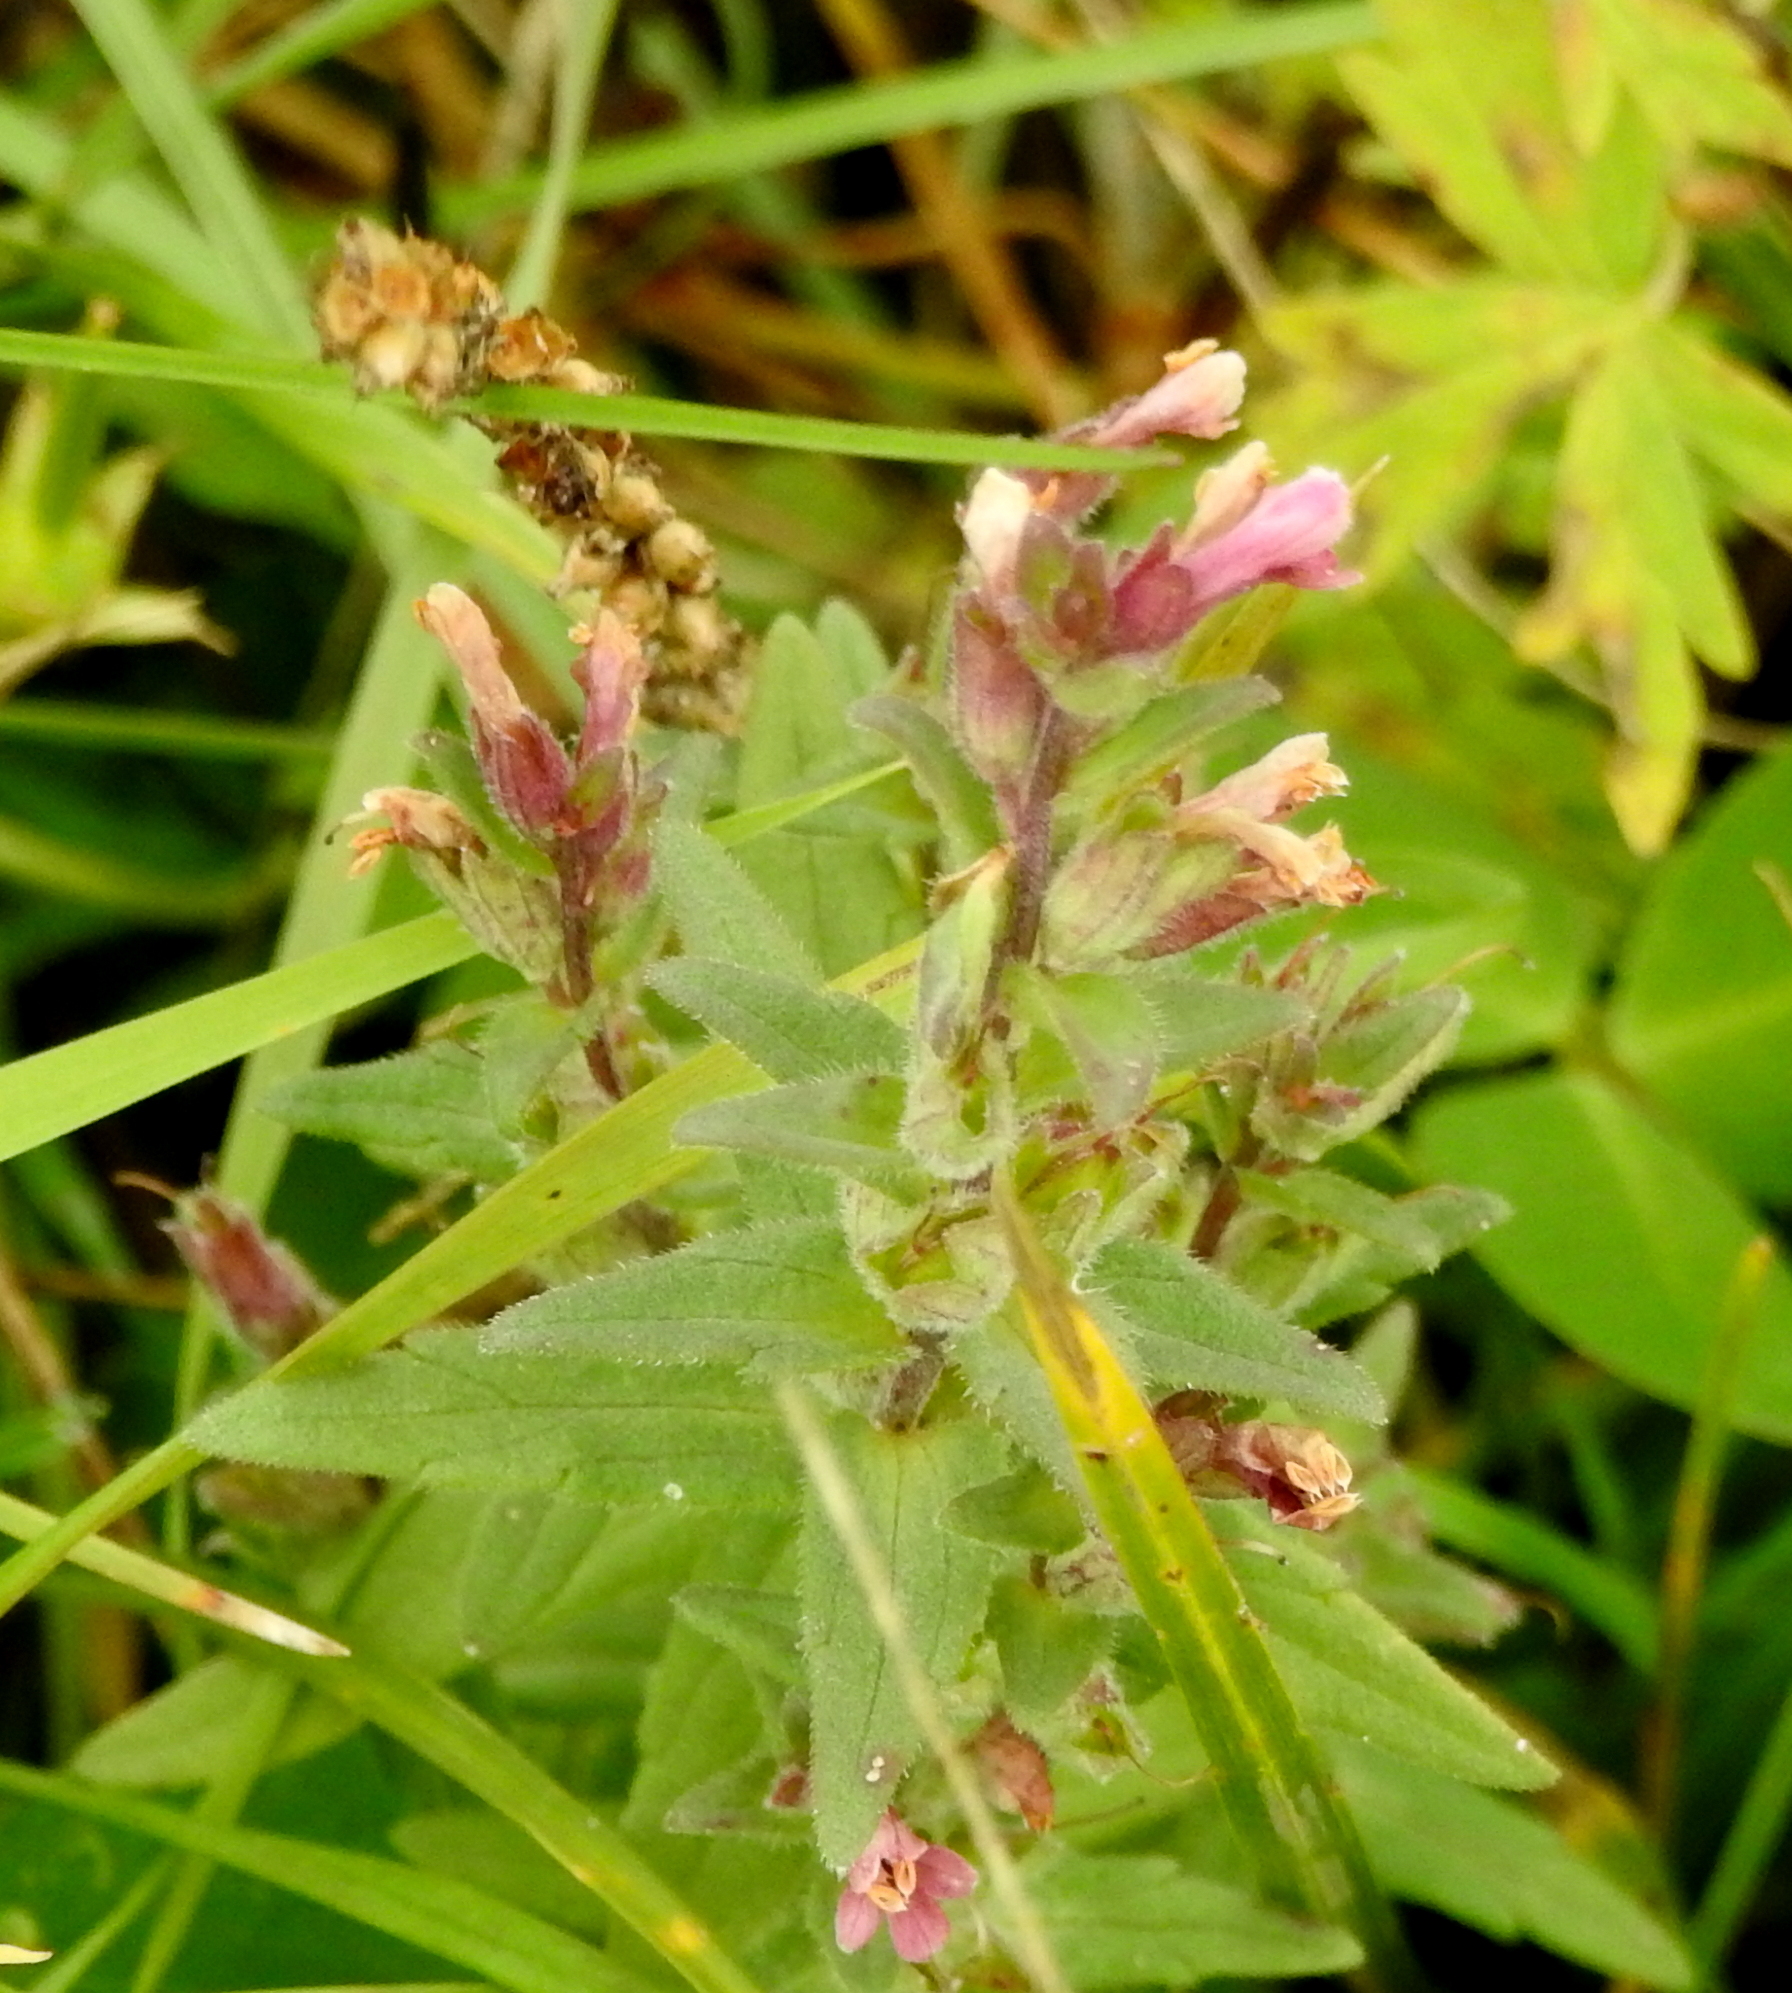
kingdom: Plantae
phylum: Tracheophyta
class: Magnoliopsida
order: Lamiales
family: Orobanchaceae
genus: Odontites
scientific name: Odontites vulgaris
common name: Broomrape
